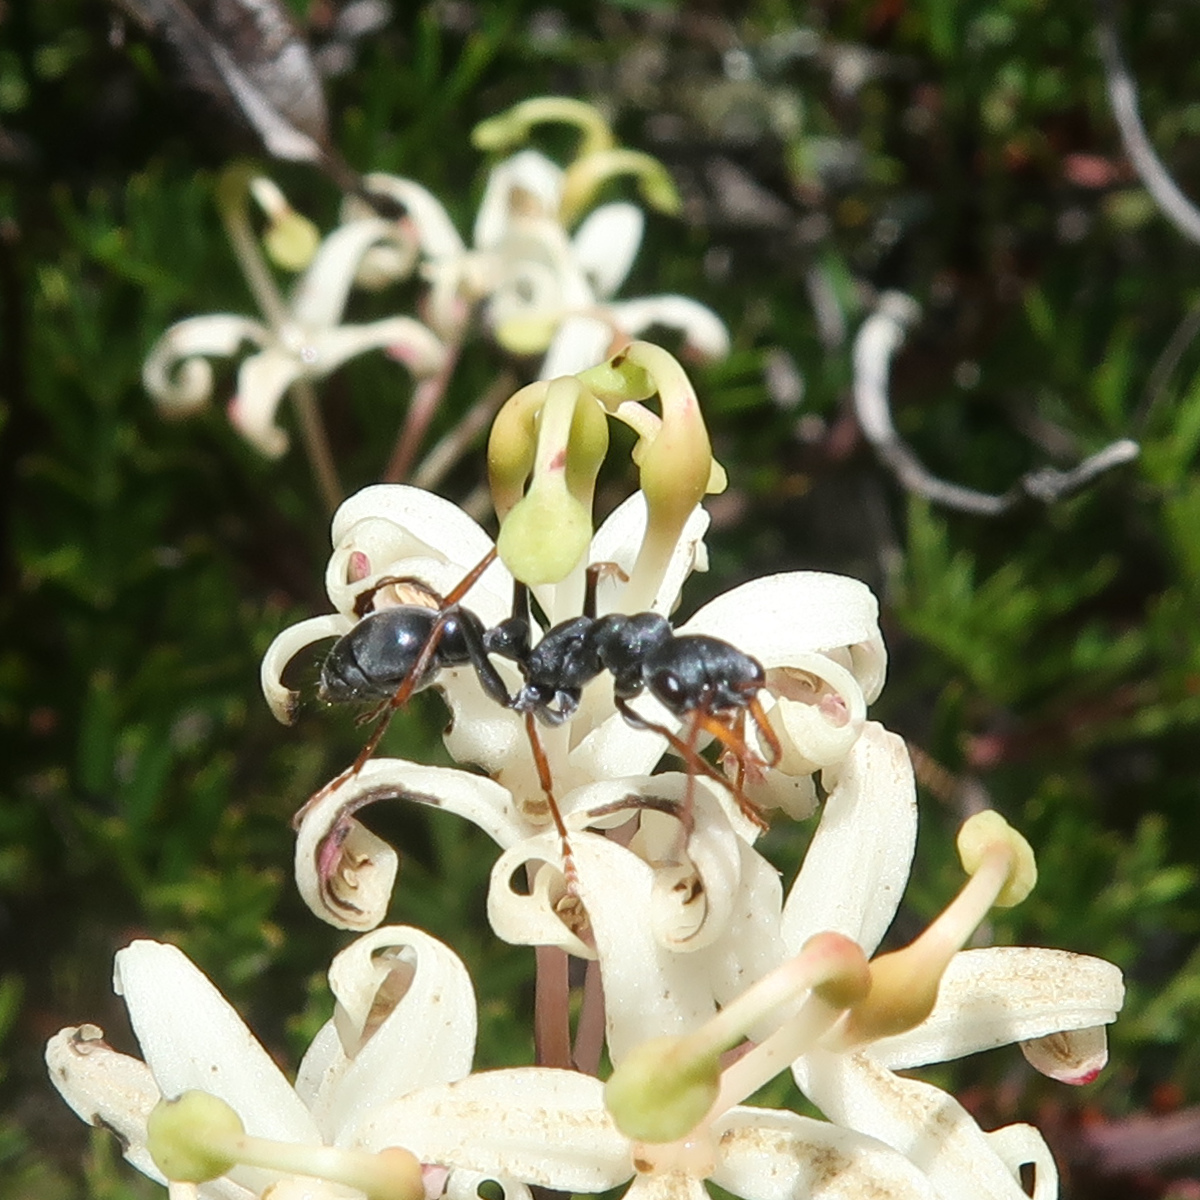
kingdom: Animalia
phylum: Arthropoda
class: Insecta
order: Hymenoptera
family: Formicidae
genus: Myrmecia
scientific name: Myrmecia pilosula
